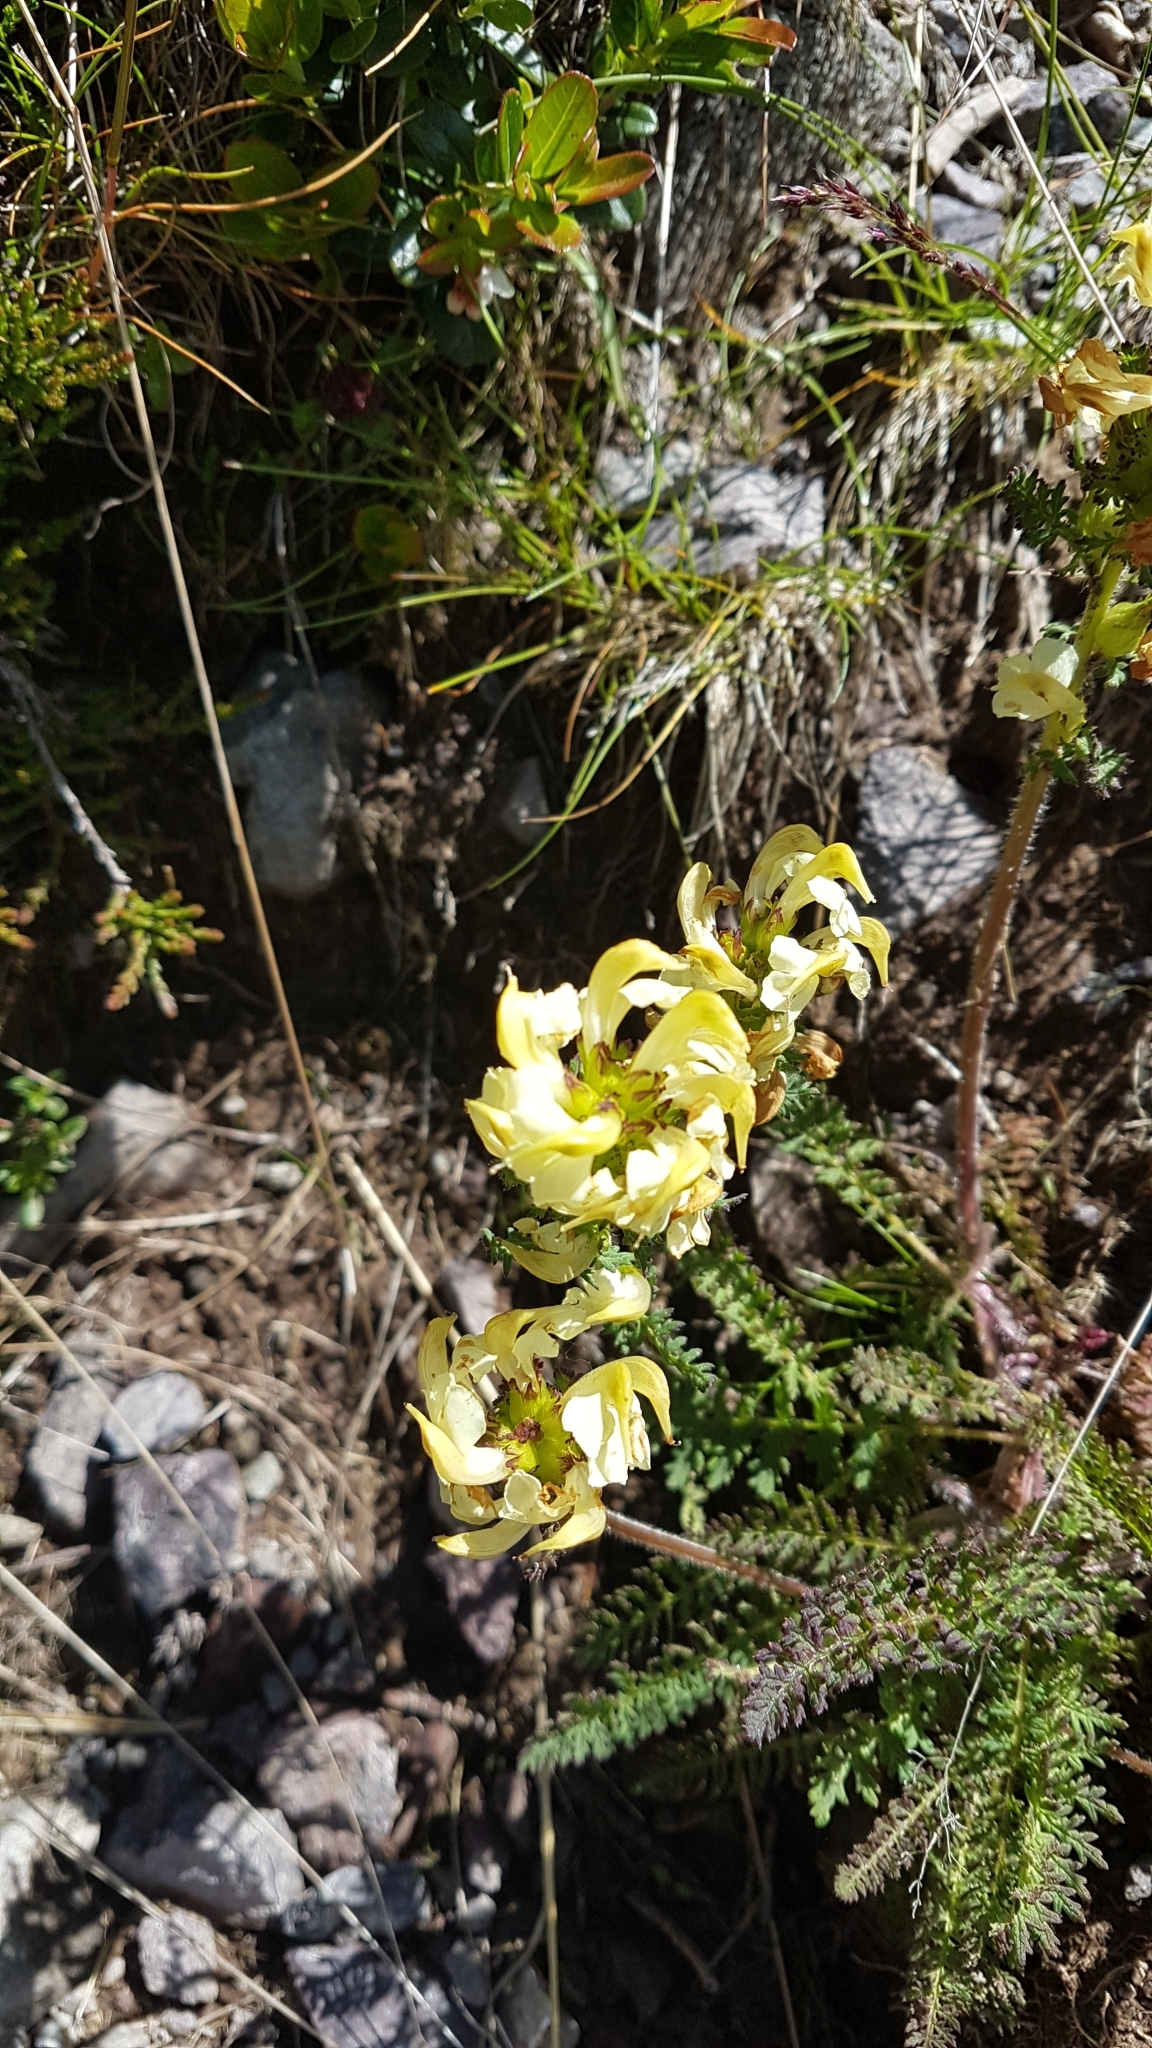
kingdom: Plantae
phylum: Tracheophyta
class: Magnoliopsida
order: Lamiales
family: Orobanchaceae
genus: Pedicularis
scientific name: Pedicularis elongata
